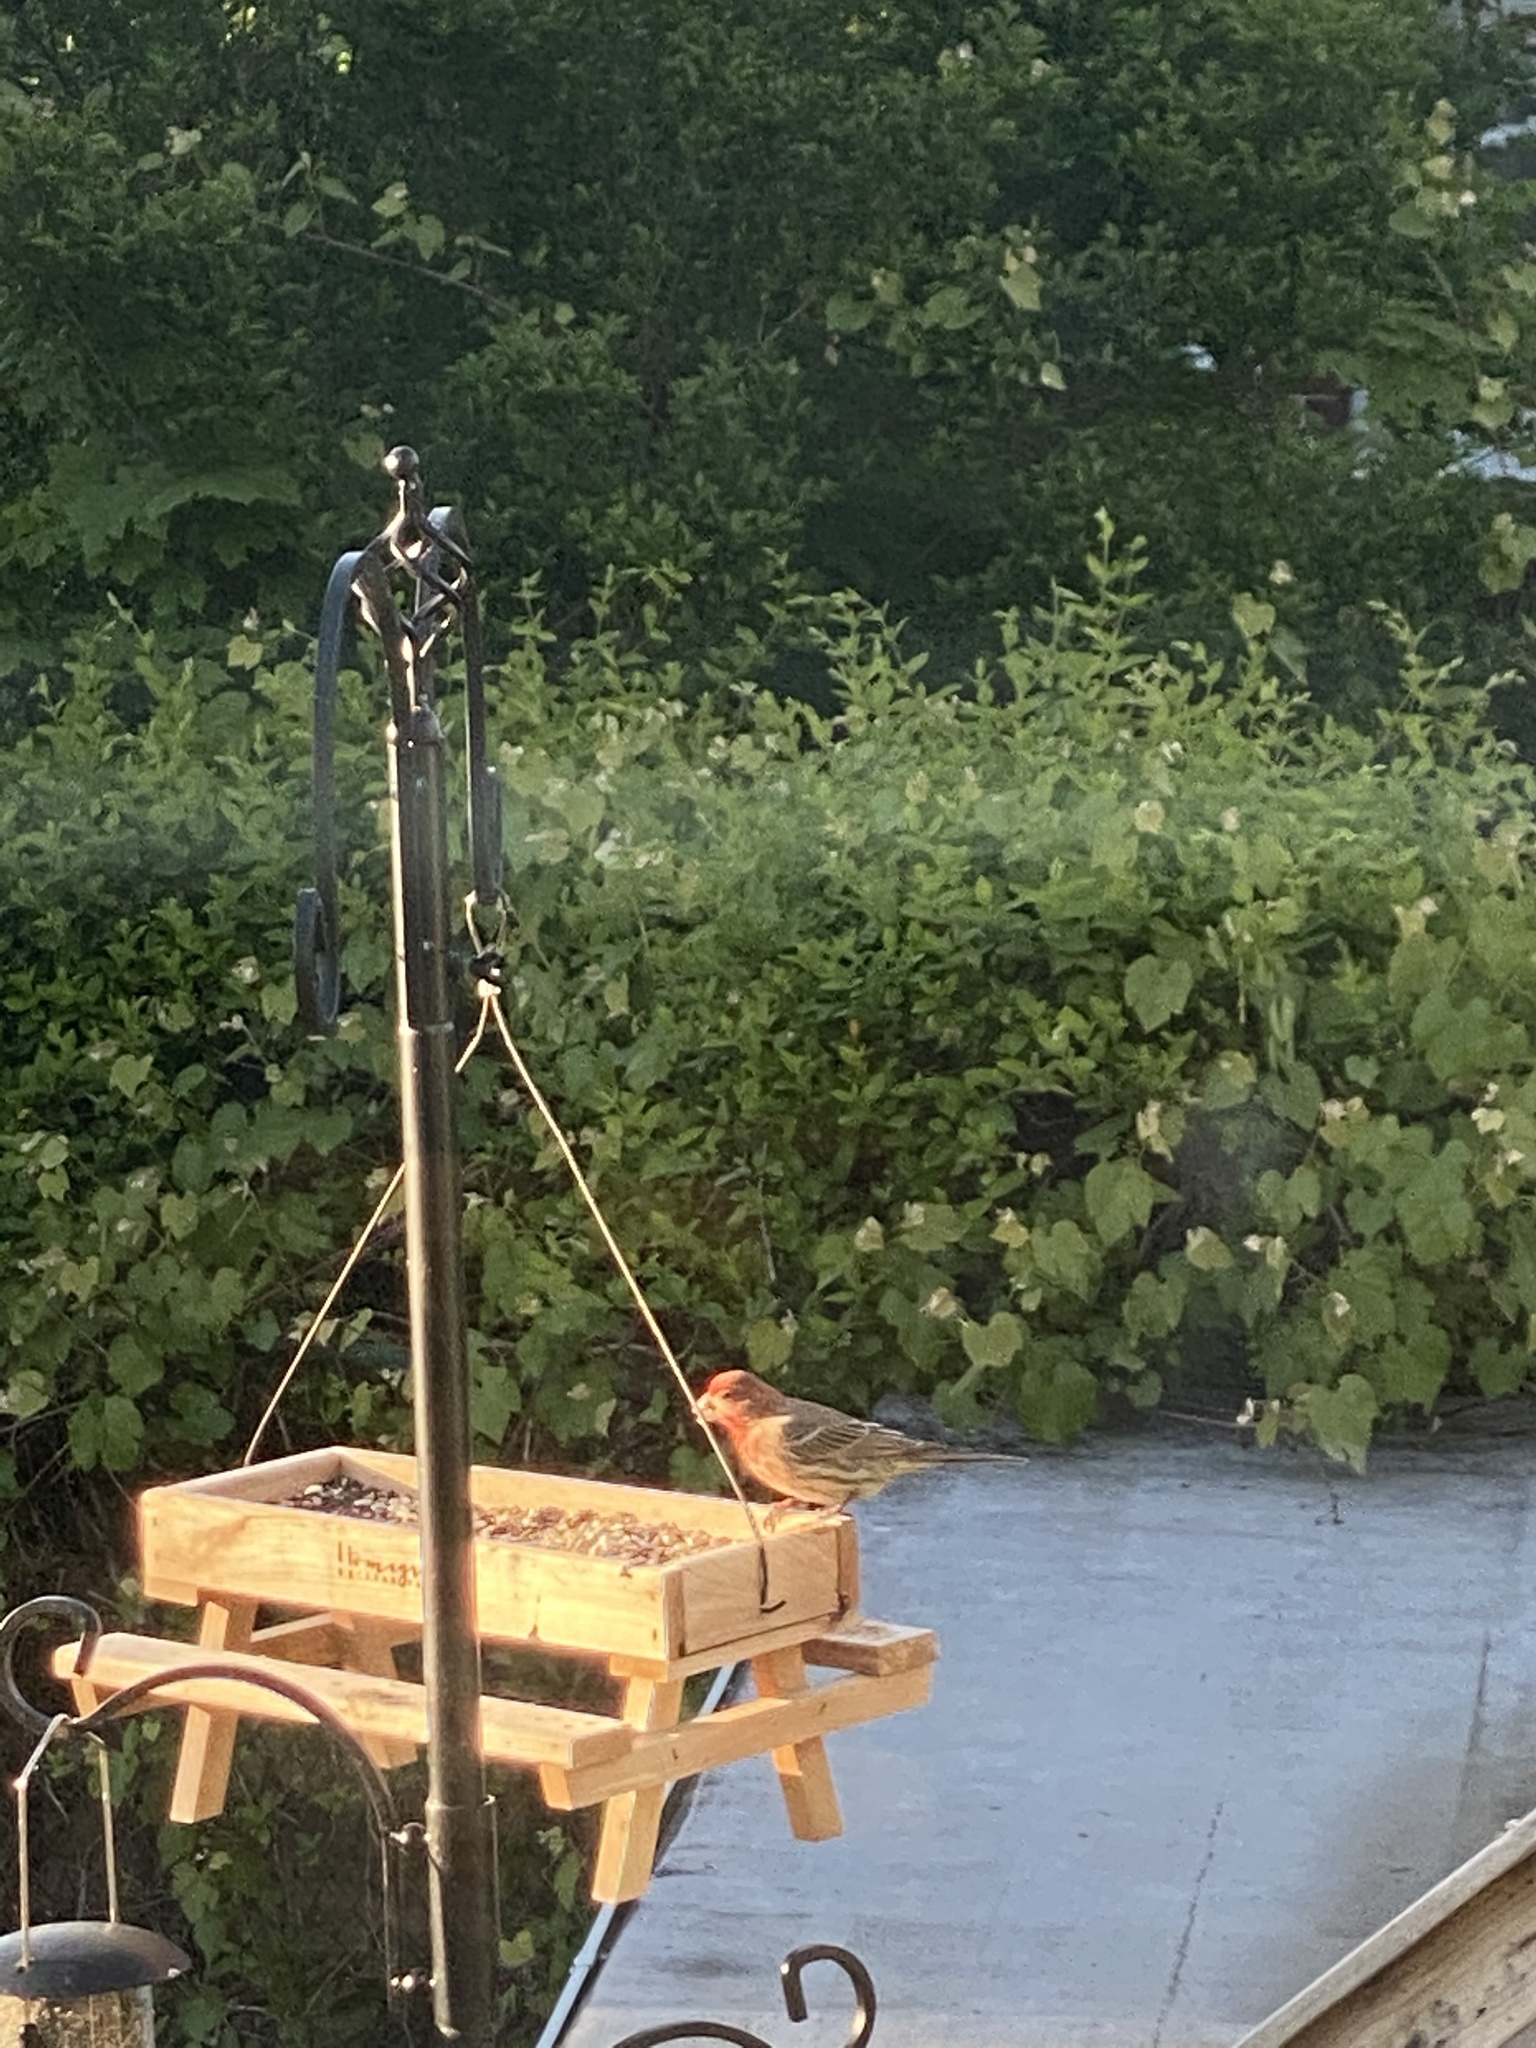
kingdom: Animalia
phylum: Chordata
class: Aves
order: Passeriformes
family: Fringillidae
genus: Haemorhous
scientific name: Haemorhous mexicanus
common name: House finch
